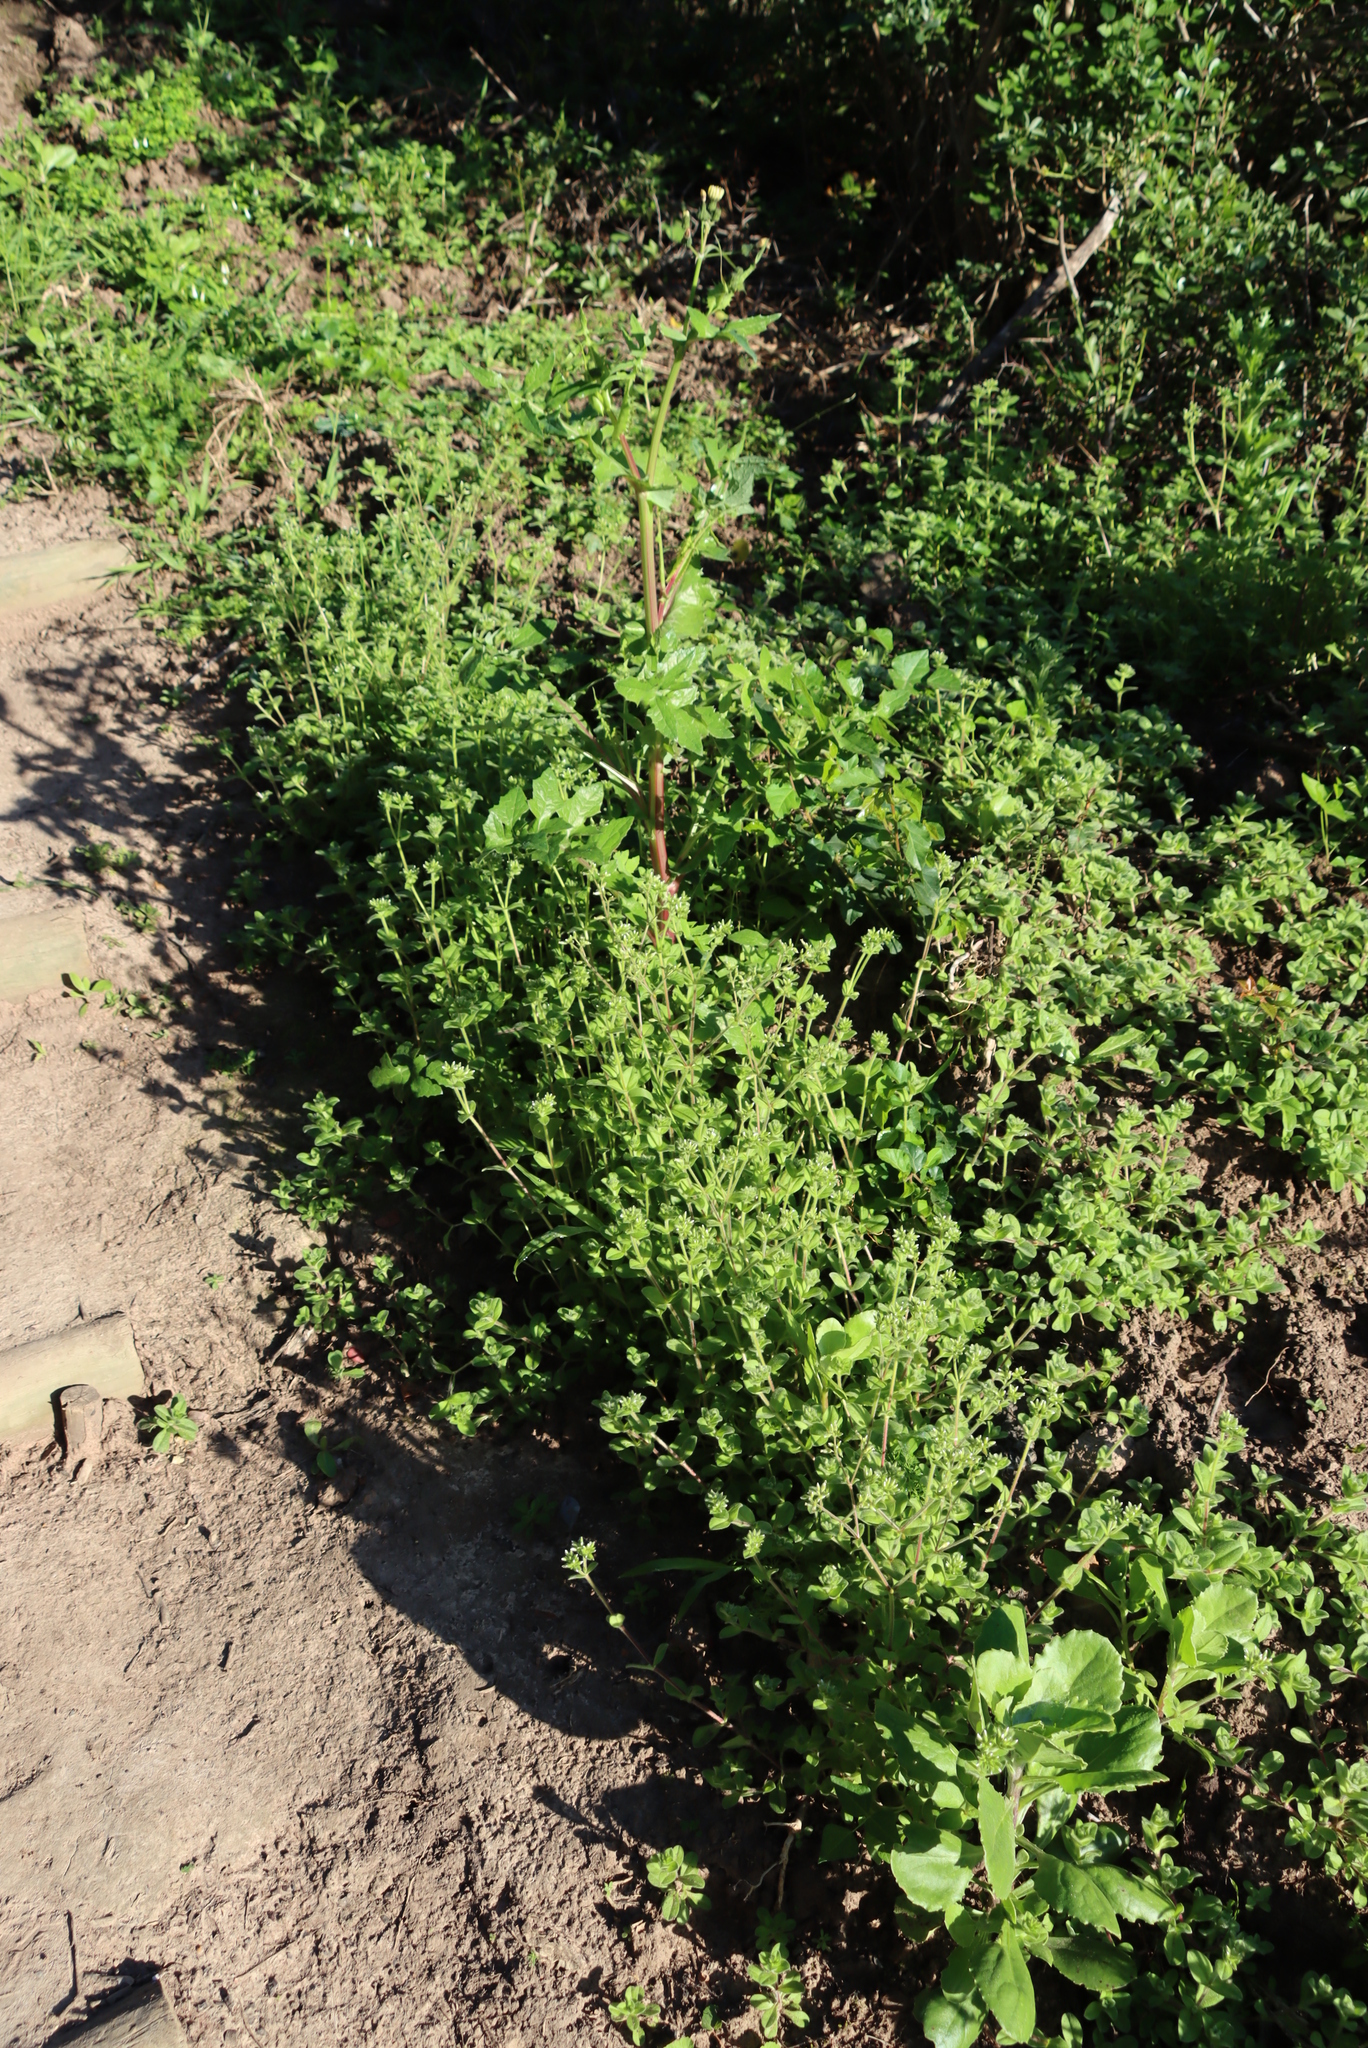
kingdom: Plantae
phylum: Tracheophyta
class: Magnoliopsida
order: Caryophyllales
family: Caryophyllaceae
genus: Cerastium
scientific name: Cerastium glomeratum
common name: Sticky chickweed
